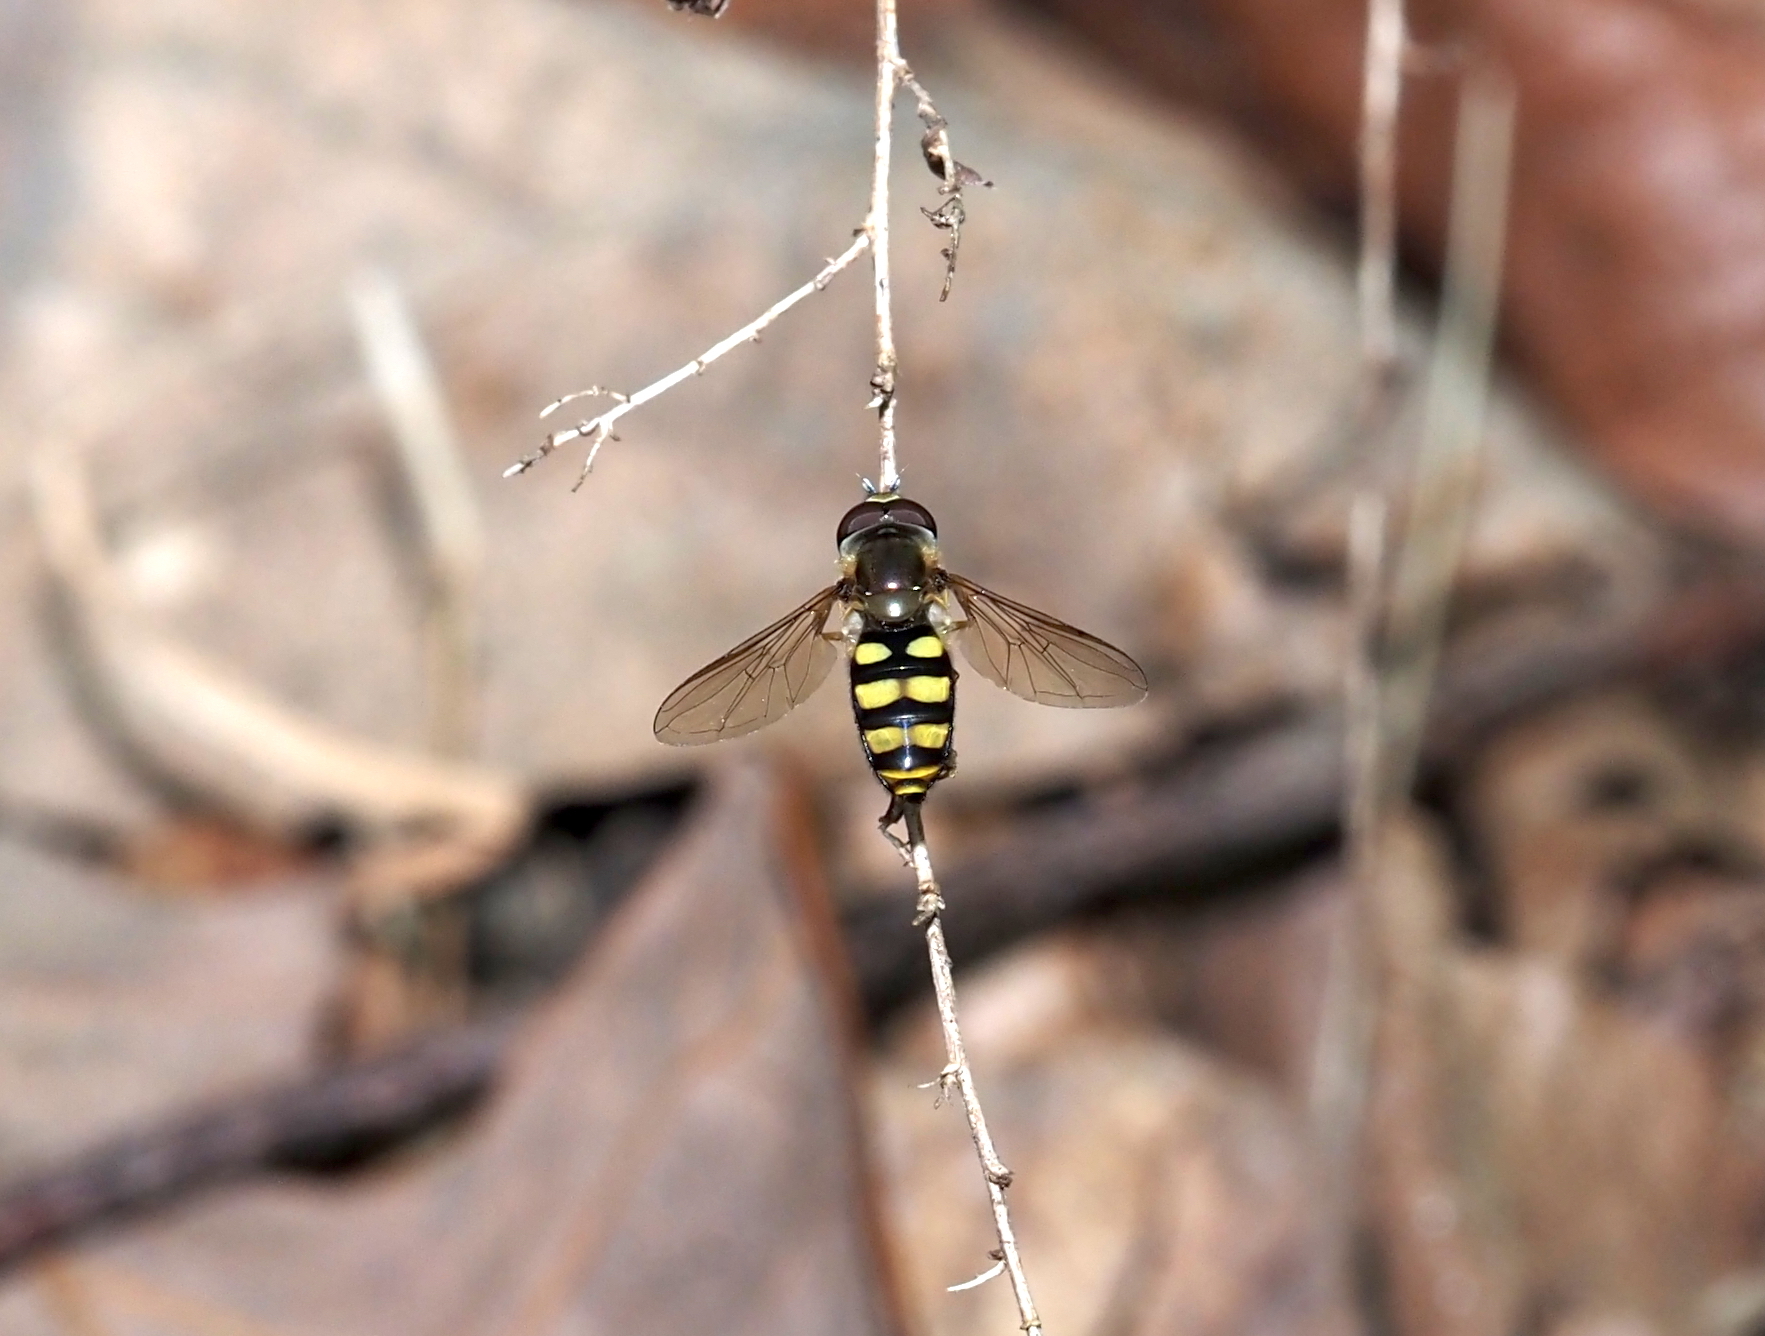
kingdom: Animalia
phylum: Arthropoda
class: Insecta
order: Diptera
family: Syrphidae
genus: Eupeodes
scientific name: Eupeodes
